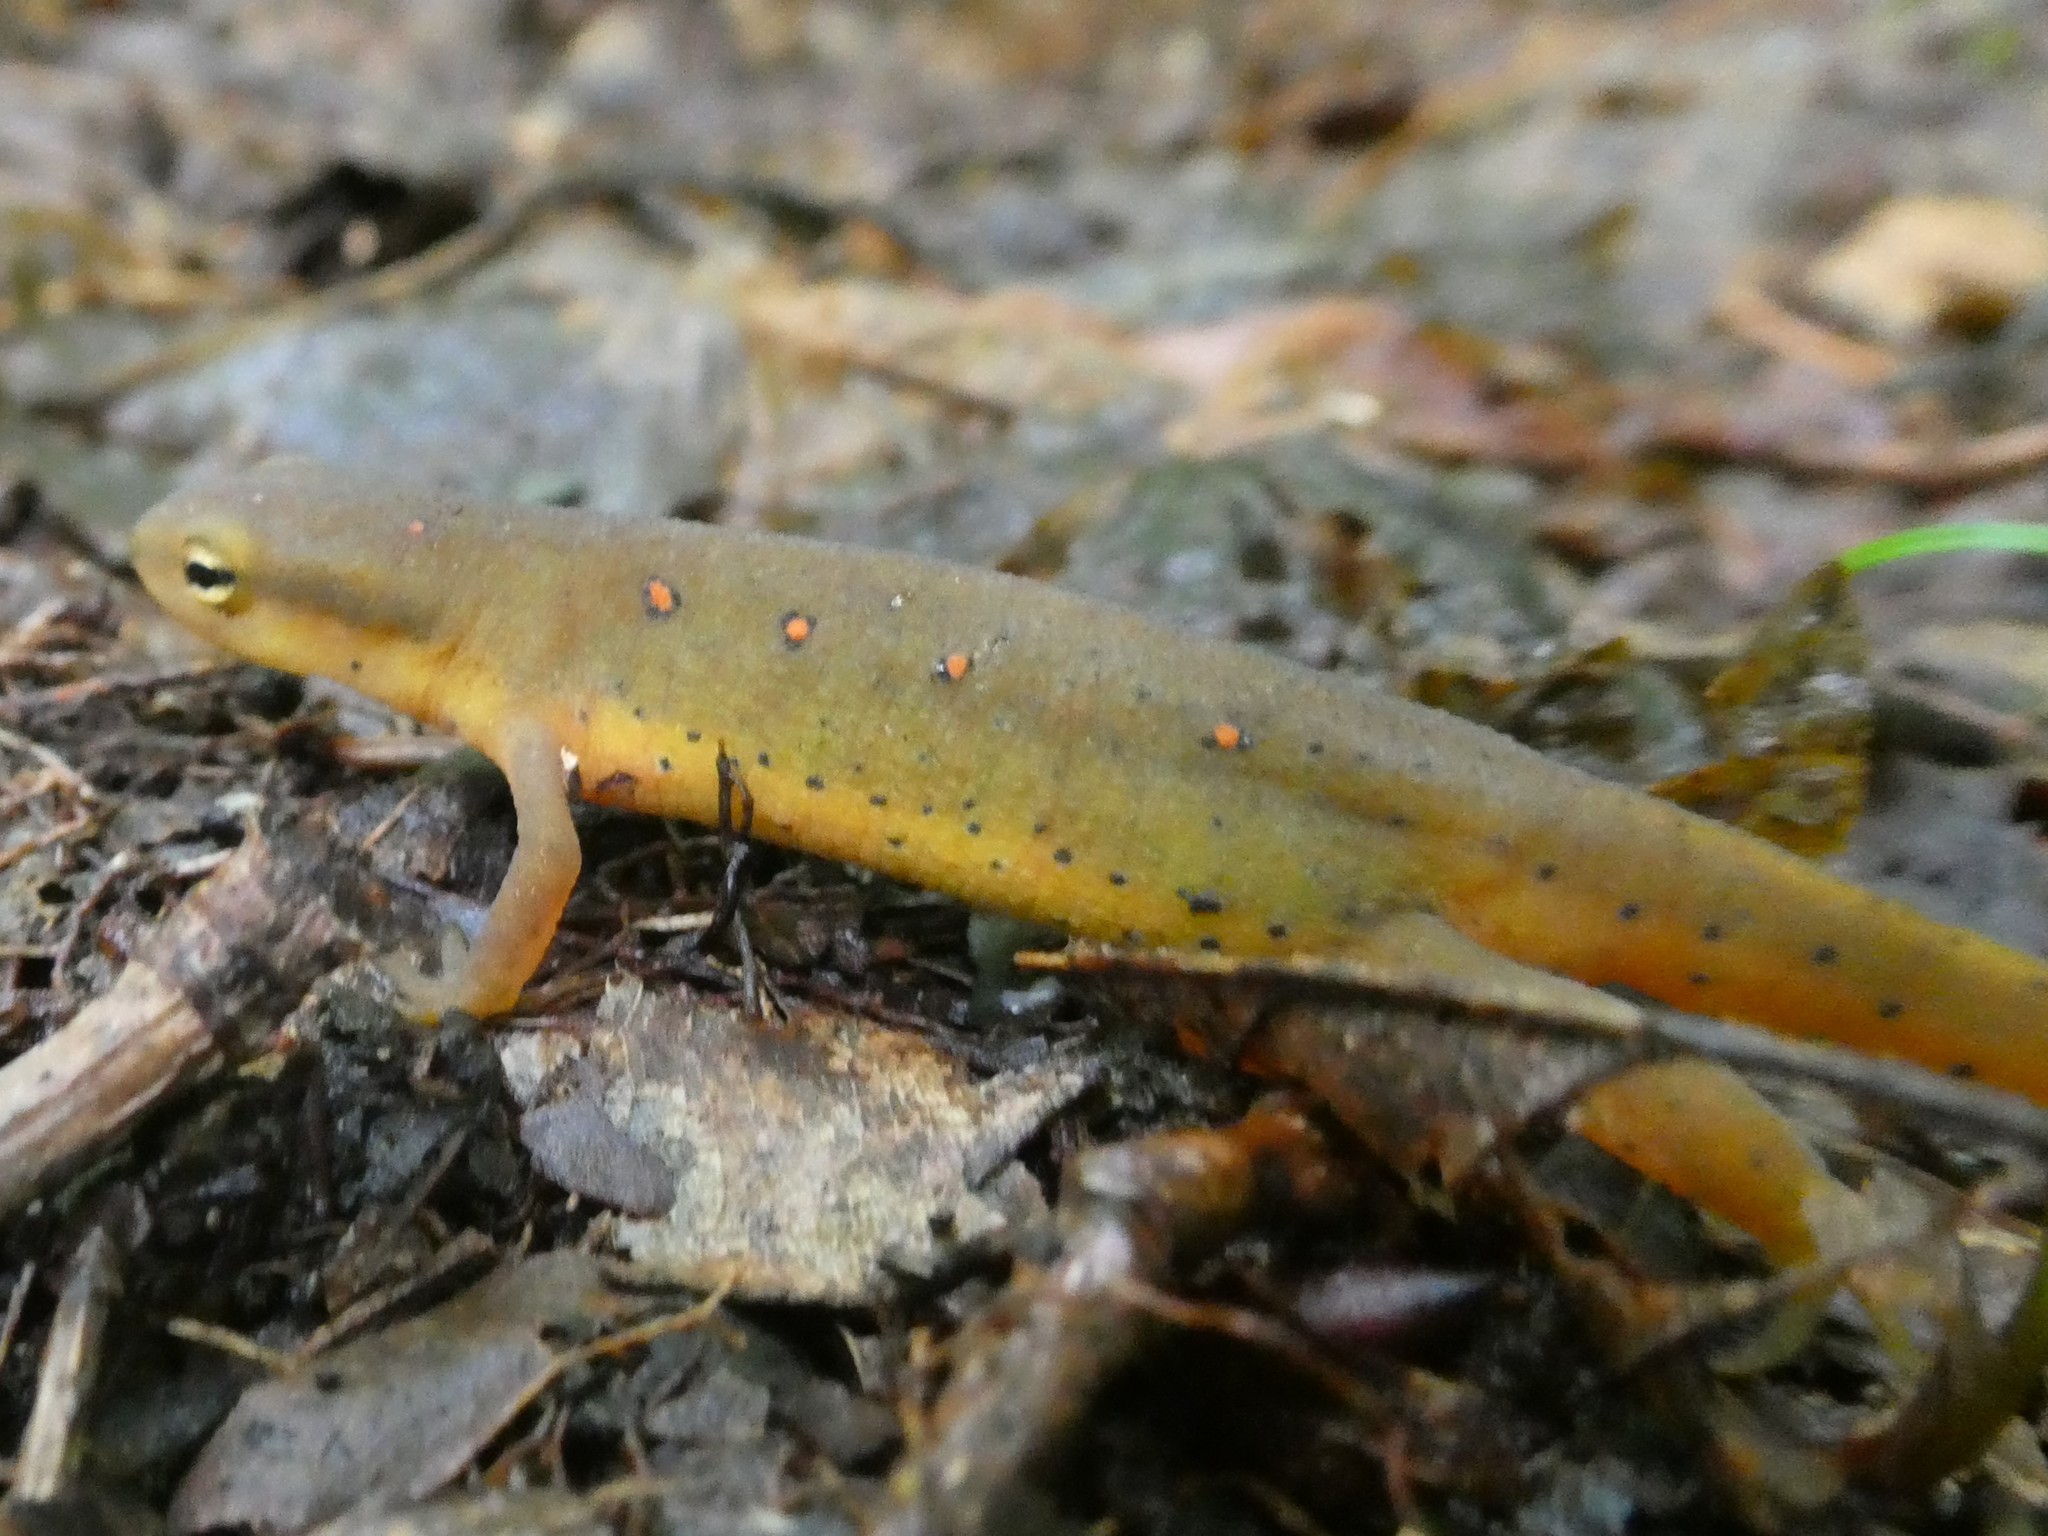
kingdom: Animalia
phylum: Chordata
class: Amphibia
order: Caudata
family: Salamandridae
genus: Notophthalmus
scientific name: Notophthalmus viridescens
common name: Eastern newt
